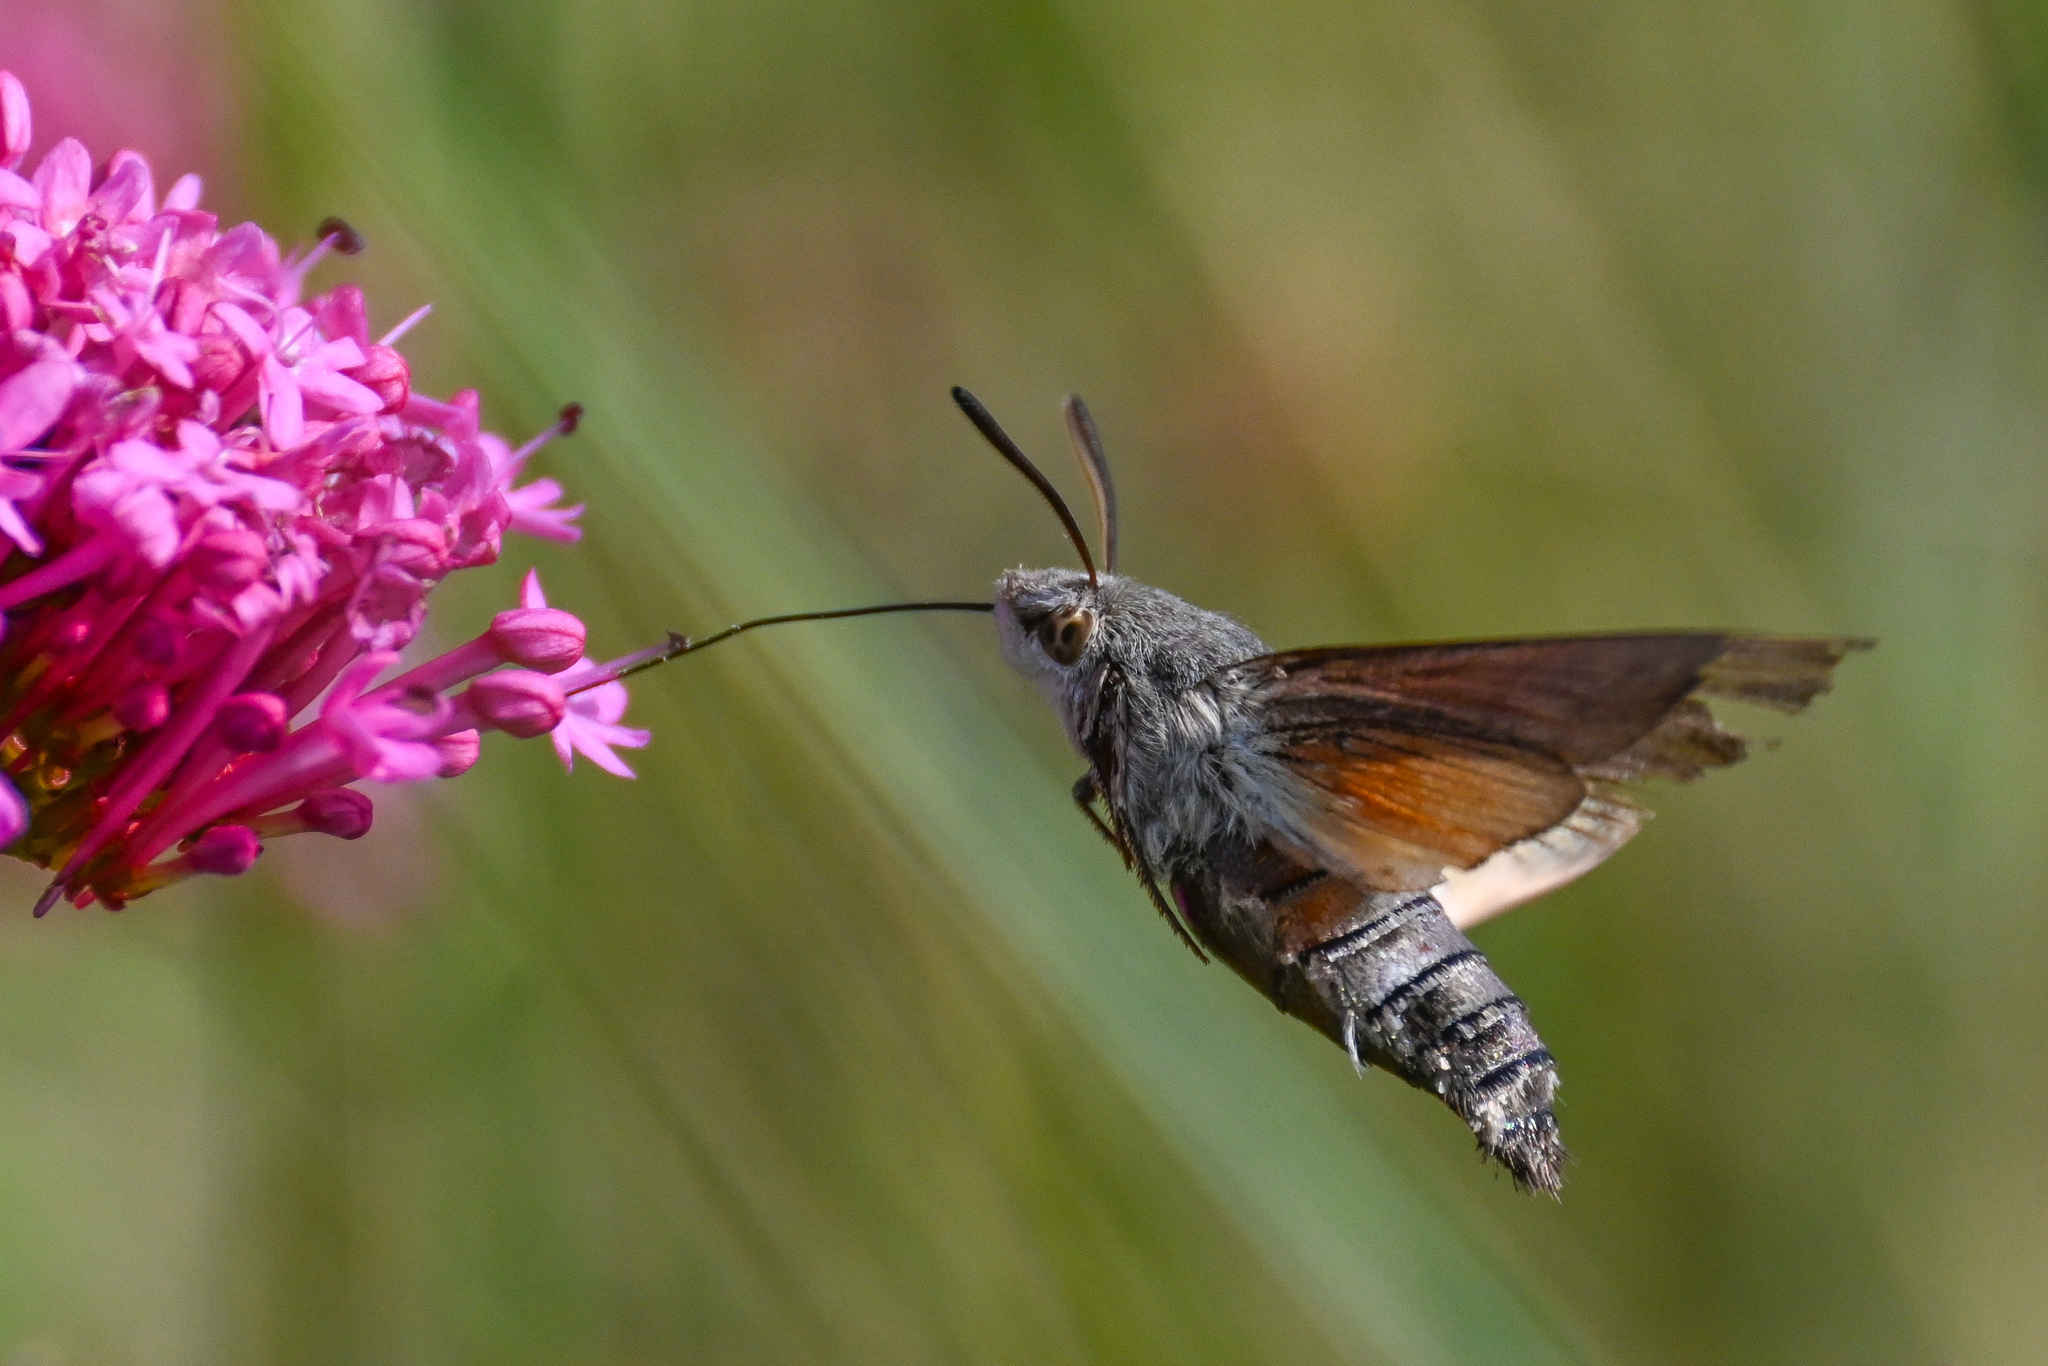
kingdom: Animalia
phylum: Arthropoda
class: Insecta
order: Lepidoptera
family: Sphingidae
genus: Macroglossum
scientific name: Macroglossum stellatarum
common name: Humming-bird hawk-moth
